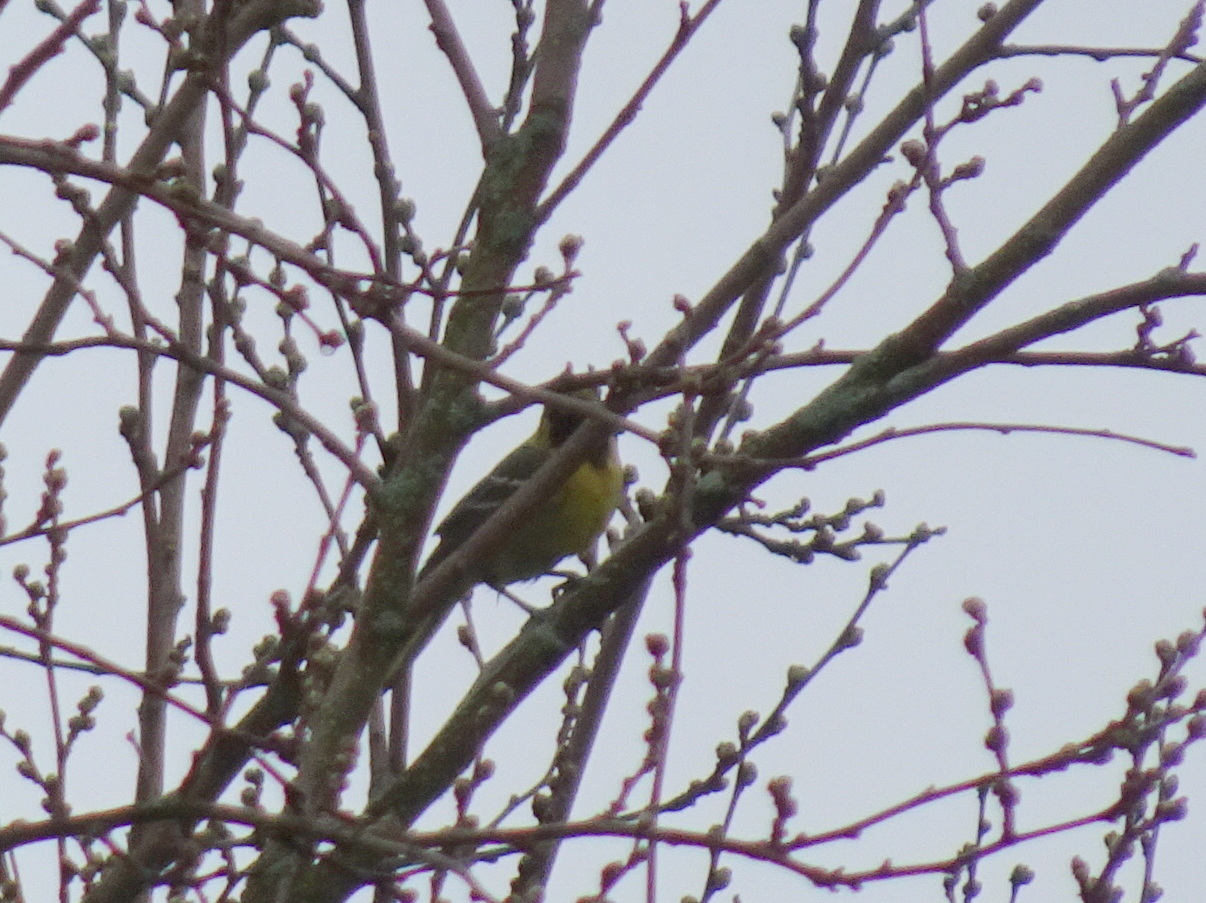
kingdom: Animalia
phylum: Chordata
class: Aves
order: Passeriformes
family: Icteridae
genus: Icterus
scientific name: Icterus spurius
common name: Orchard oriole
